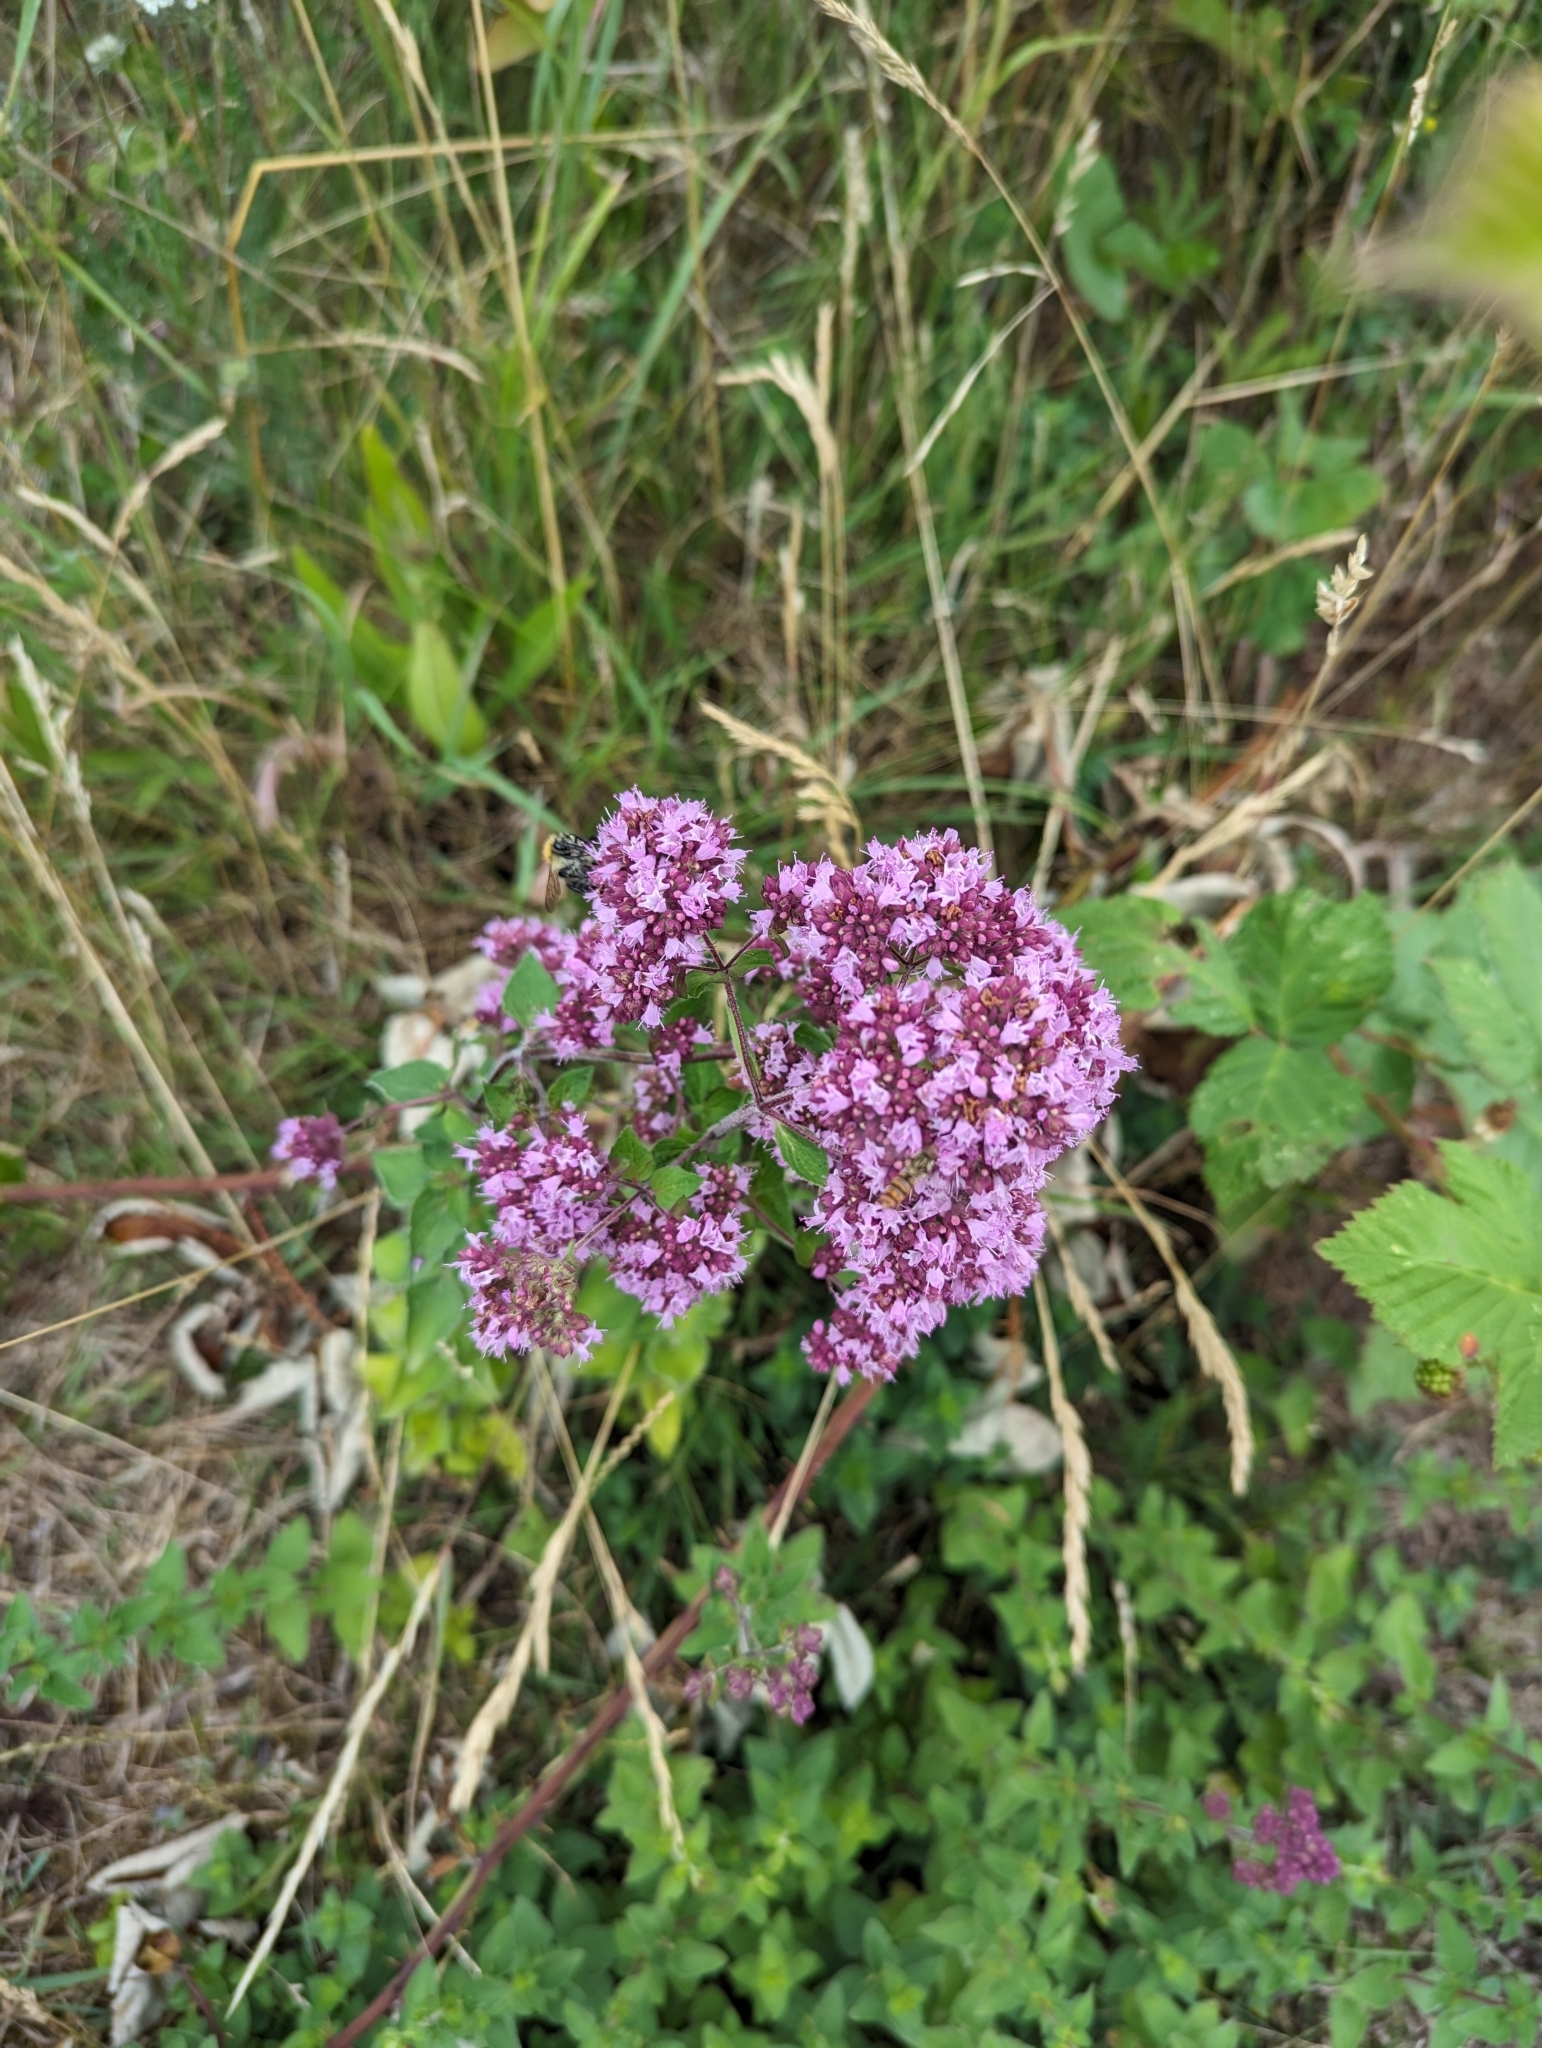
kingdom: Plantae
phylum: Tracheophyta
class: Magnoliopsida
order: Lamiales
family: Lamiaceae
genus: Origanum
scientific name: Origanum vulgare
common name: Wild marjoram
